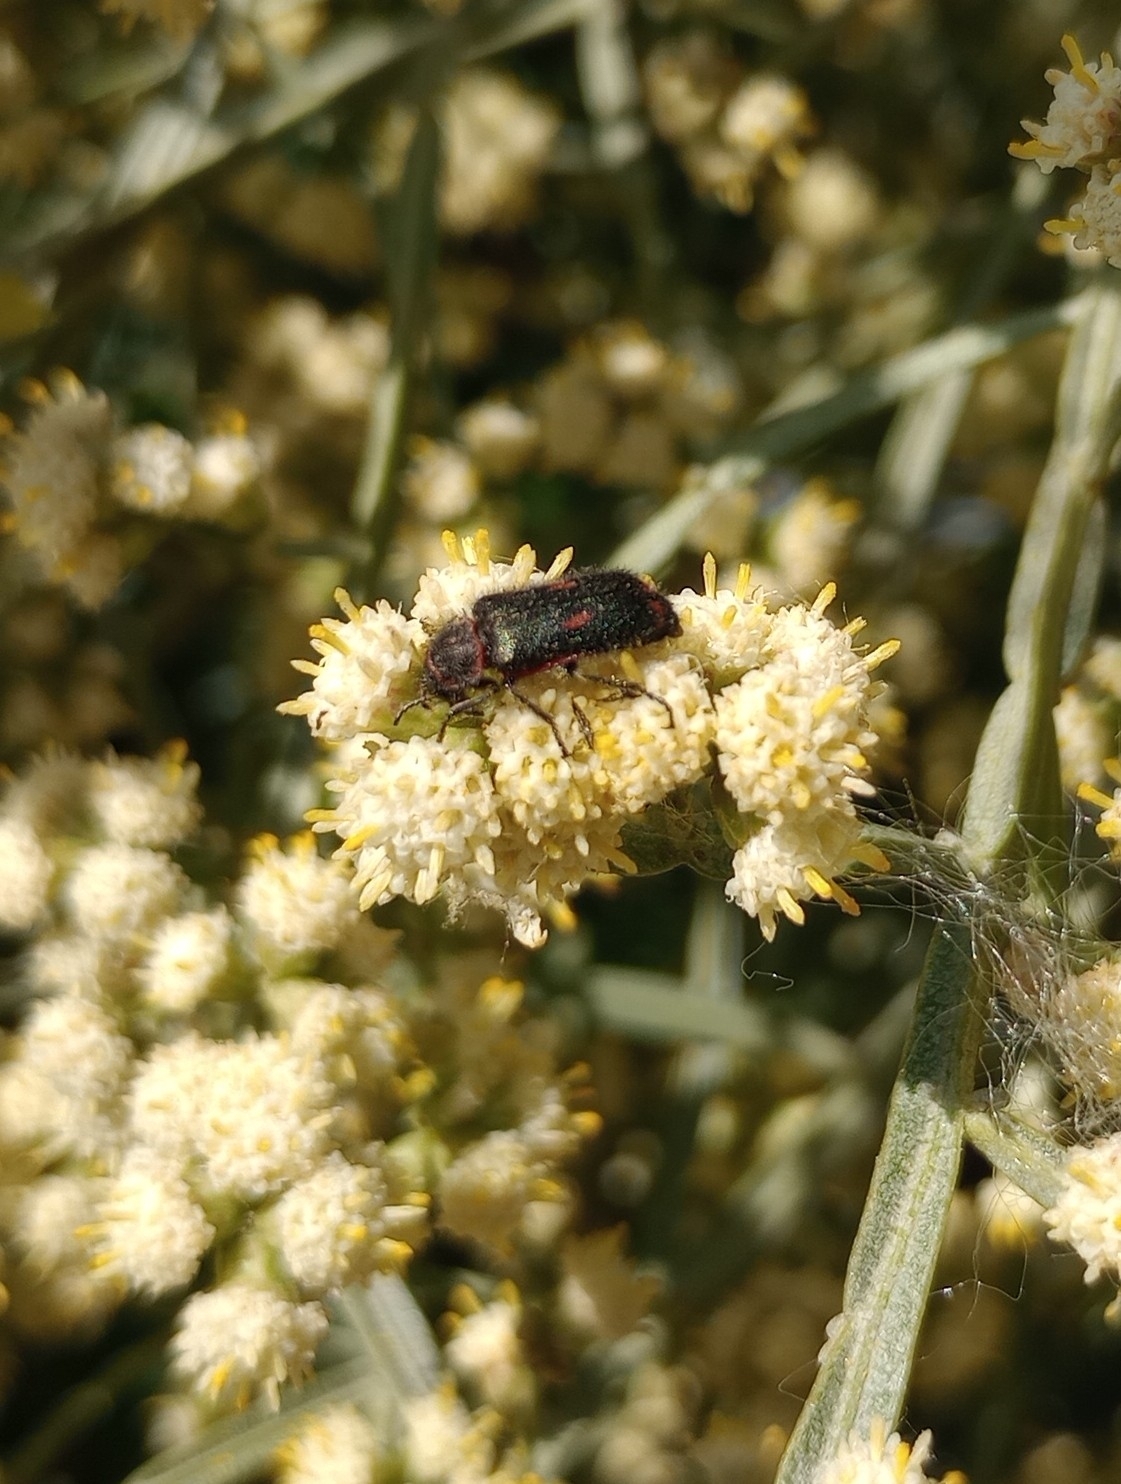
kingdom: Animalia
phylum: Arthropoda
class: Insecta
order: Coleoptera
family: Melyridae
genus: Astylus
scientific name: Astylus
